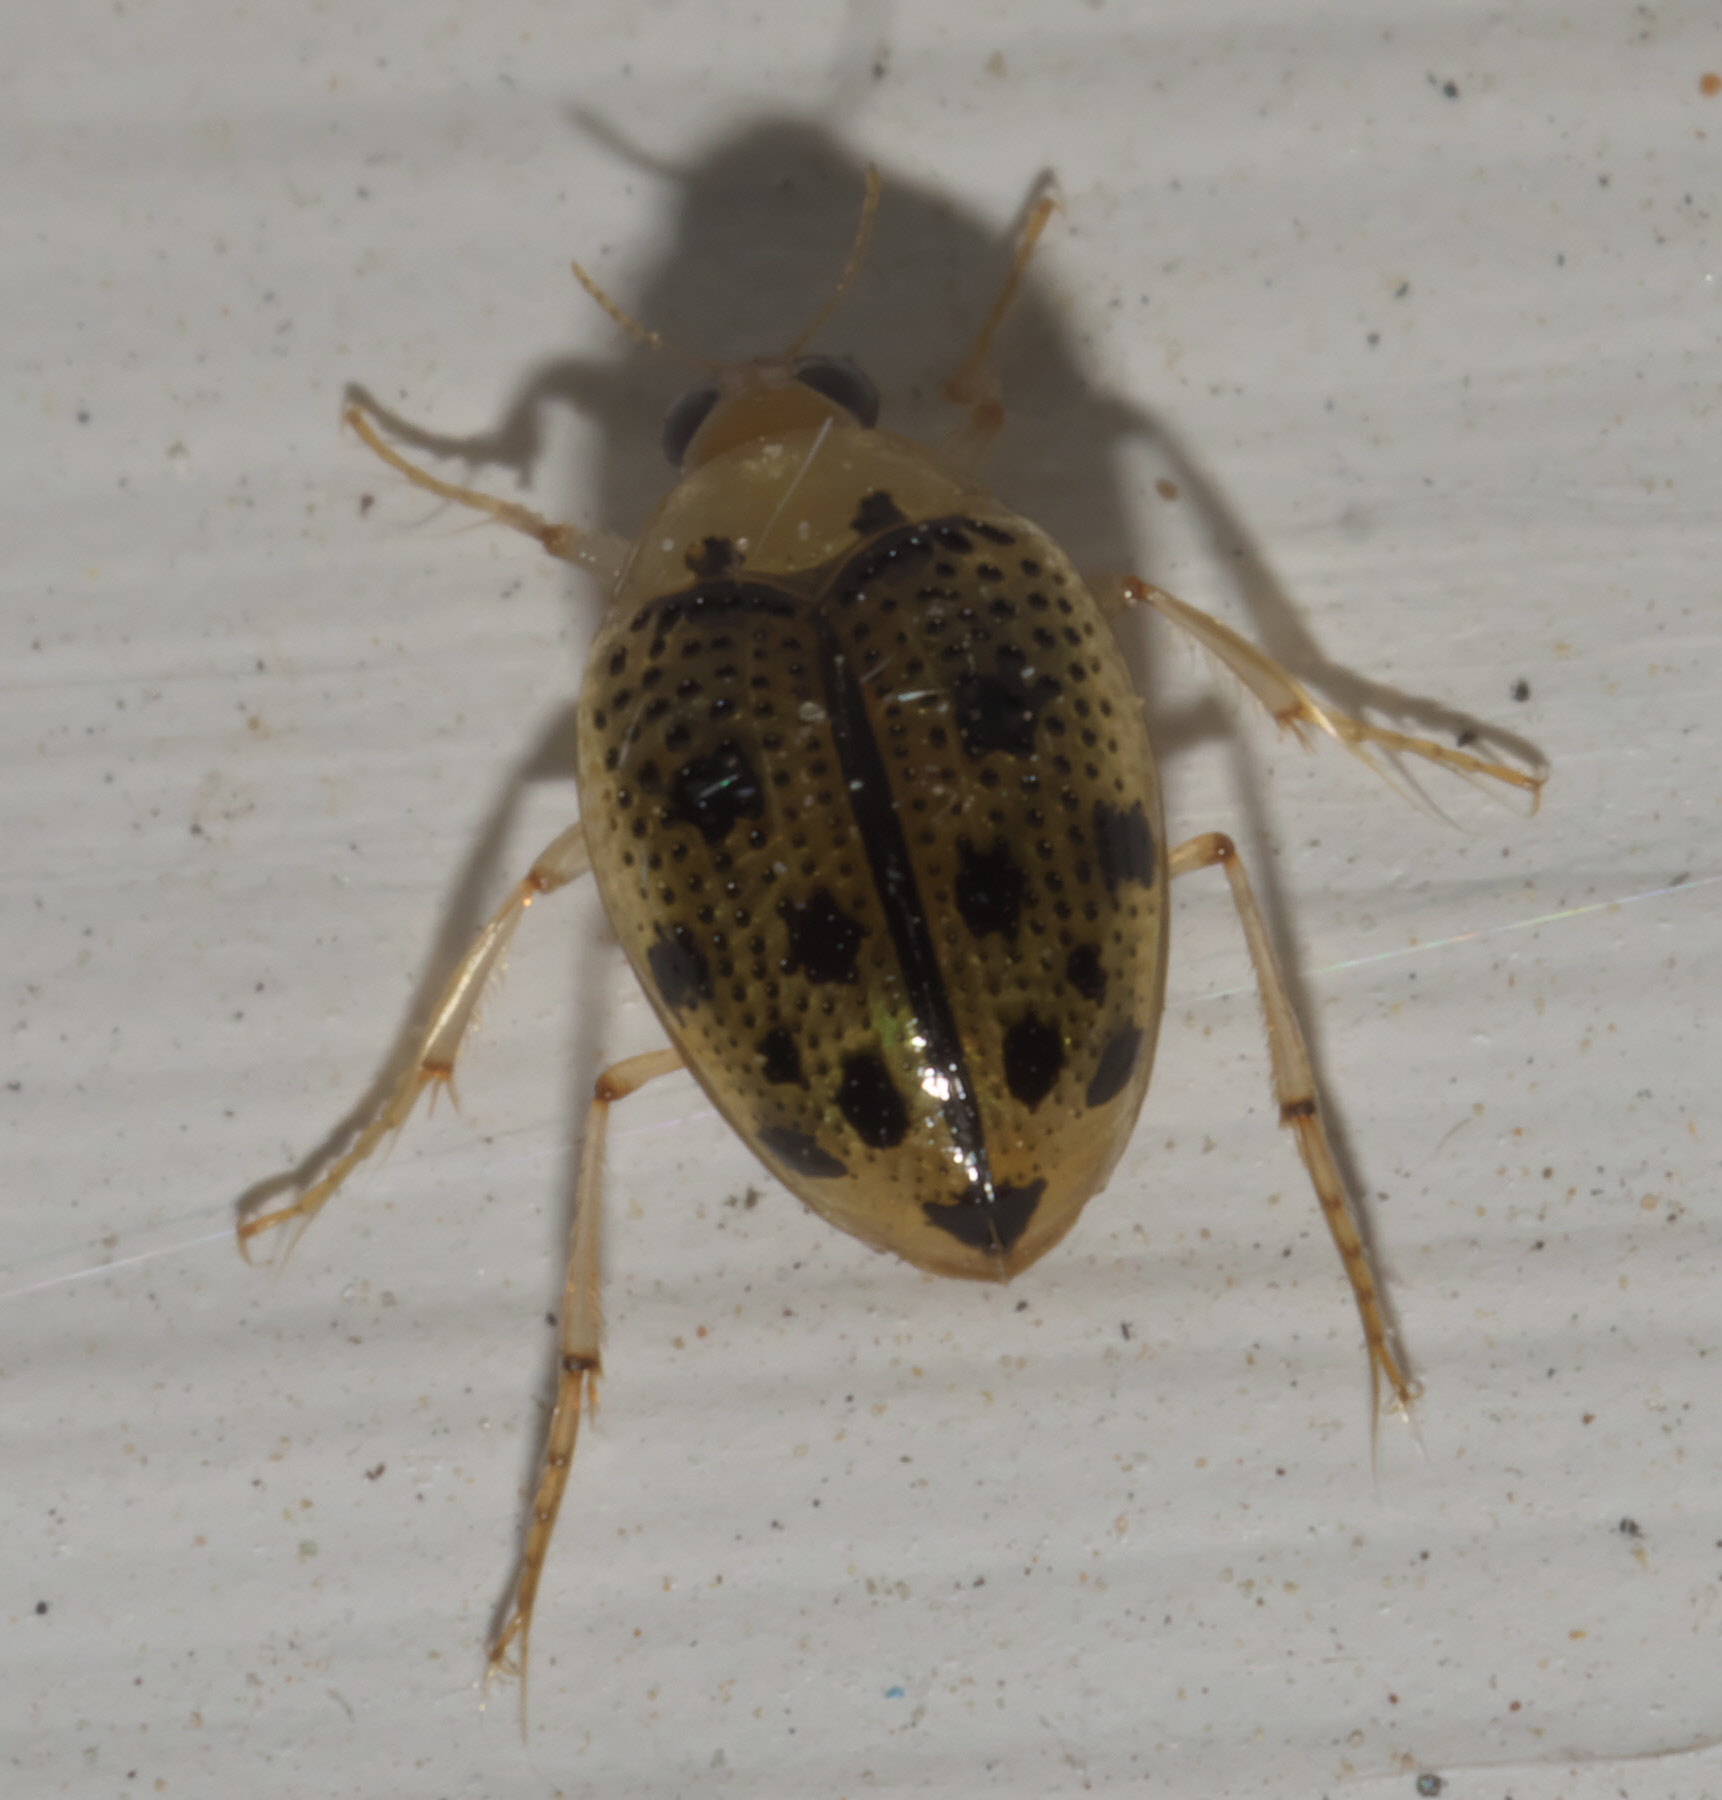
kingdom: Animalia
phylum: Arthropoda
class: Insecta
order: Coleoptera
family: Haliplidae
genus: Peltodytes
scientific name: Peltodytes litoralis
